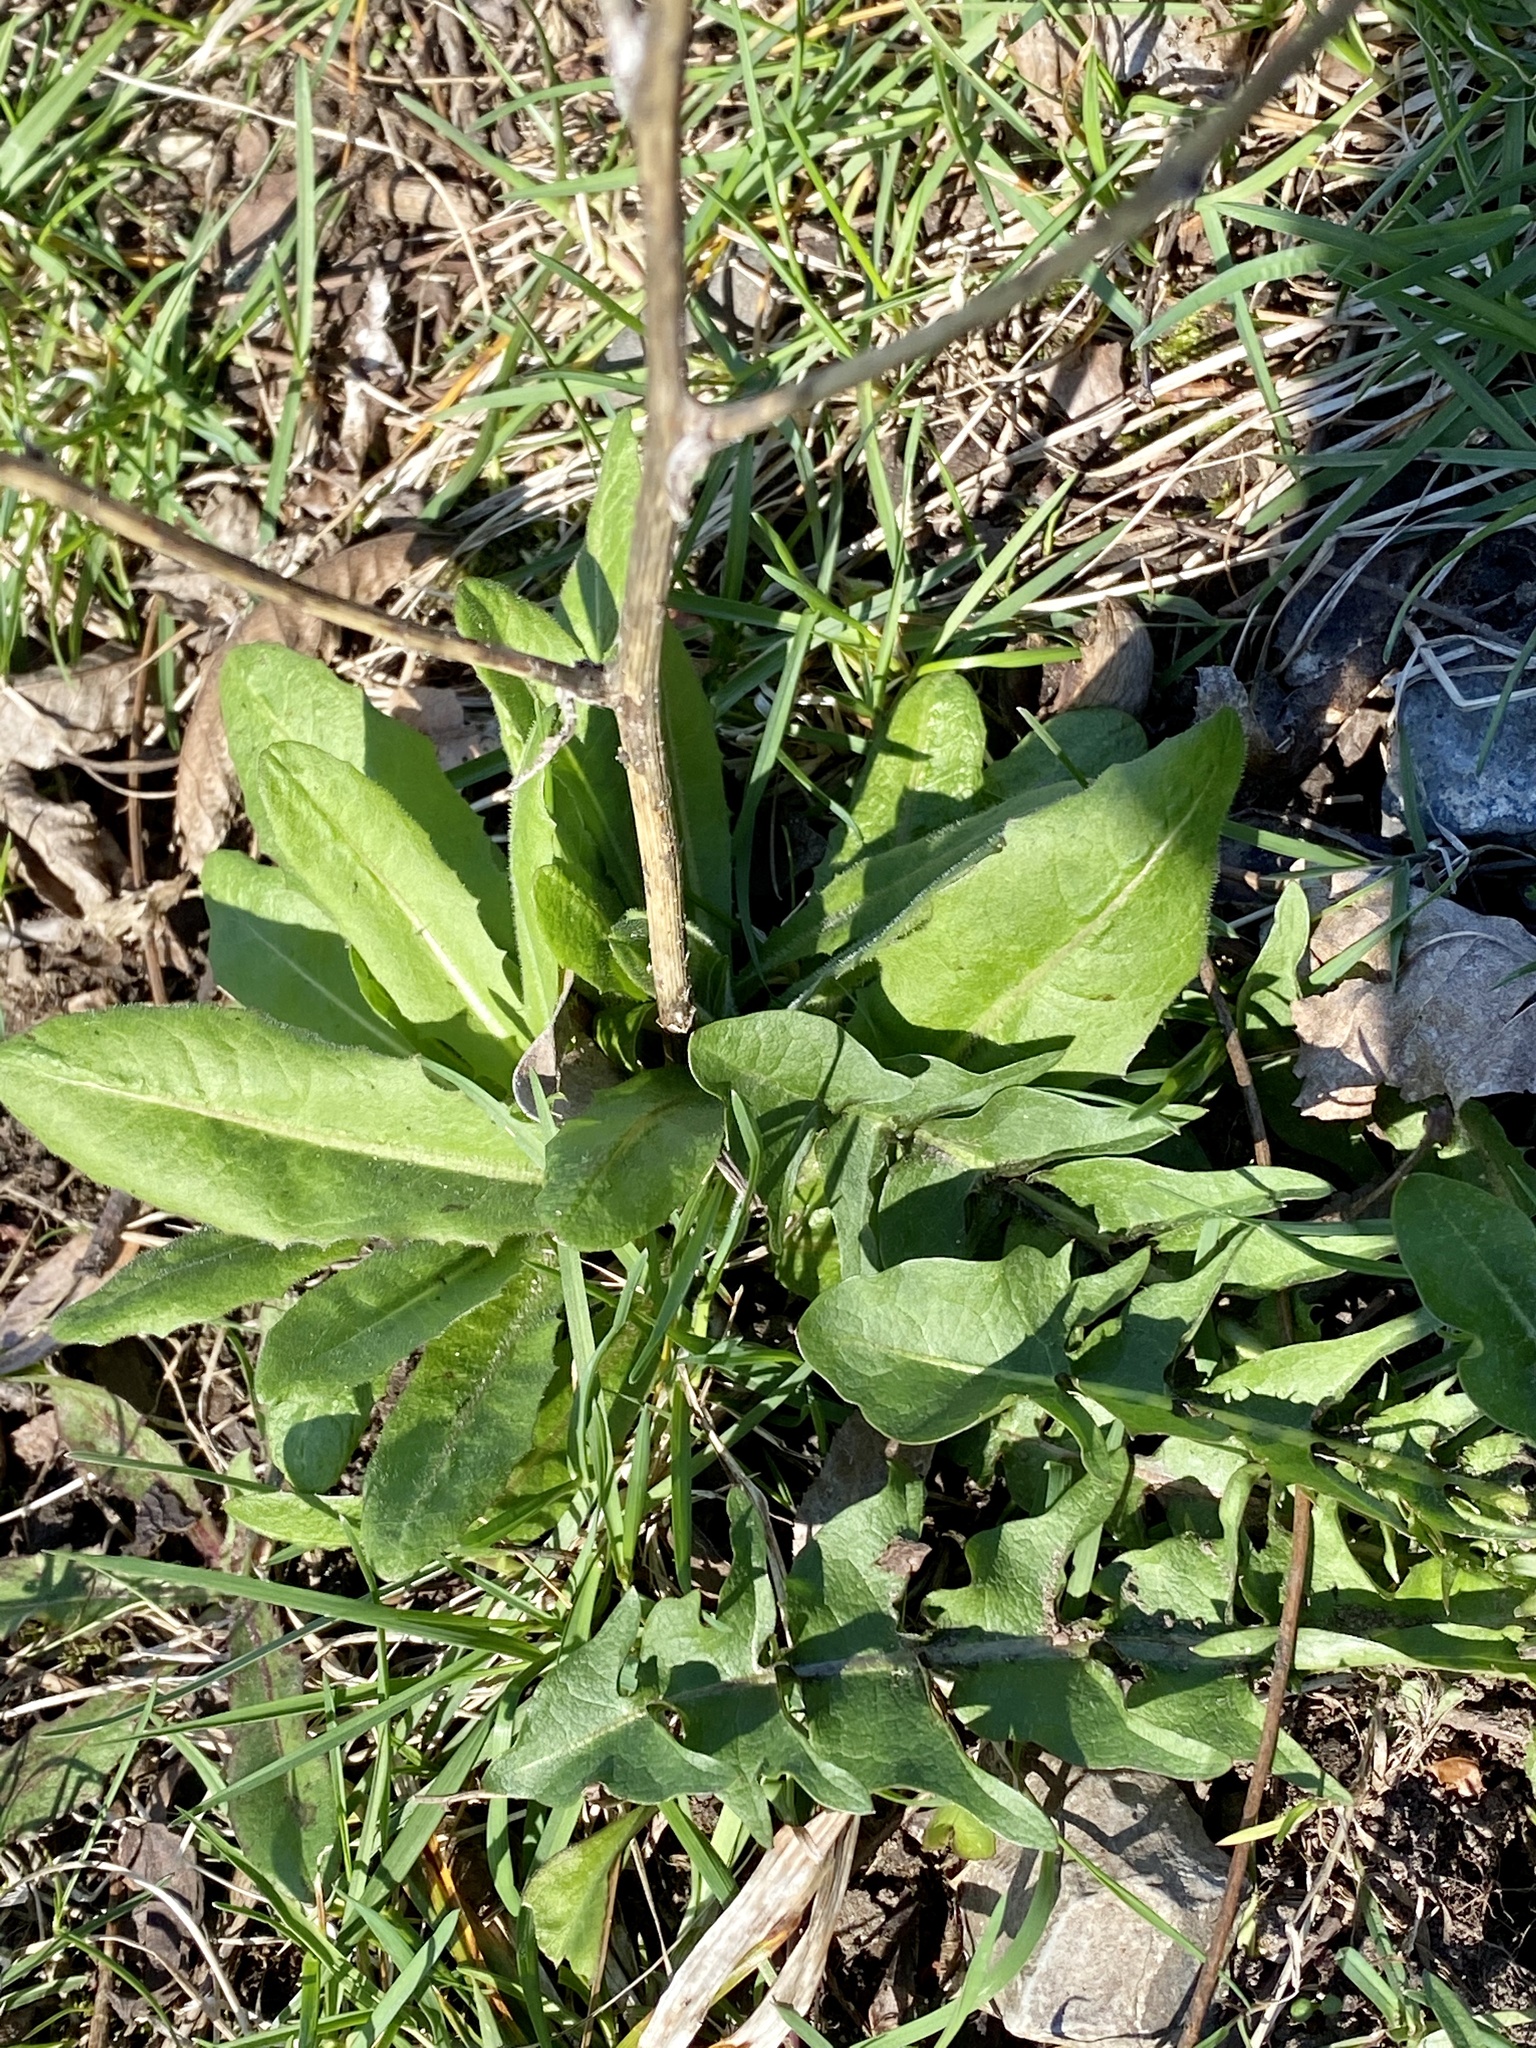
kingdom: Plantae
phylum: Tracheophyta
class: Magnoliopsida
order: Asterales
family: Asteraceae
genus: Cichorium
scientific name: Cichorium intybus
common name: Chicory
